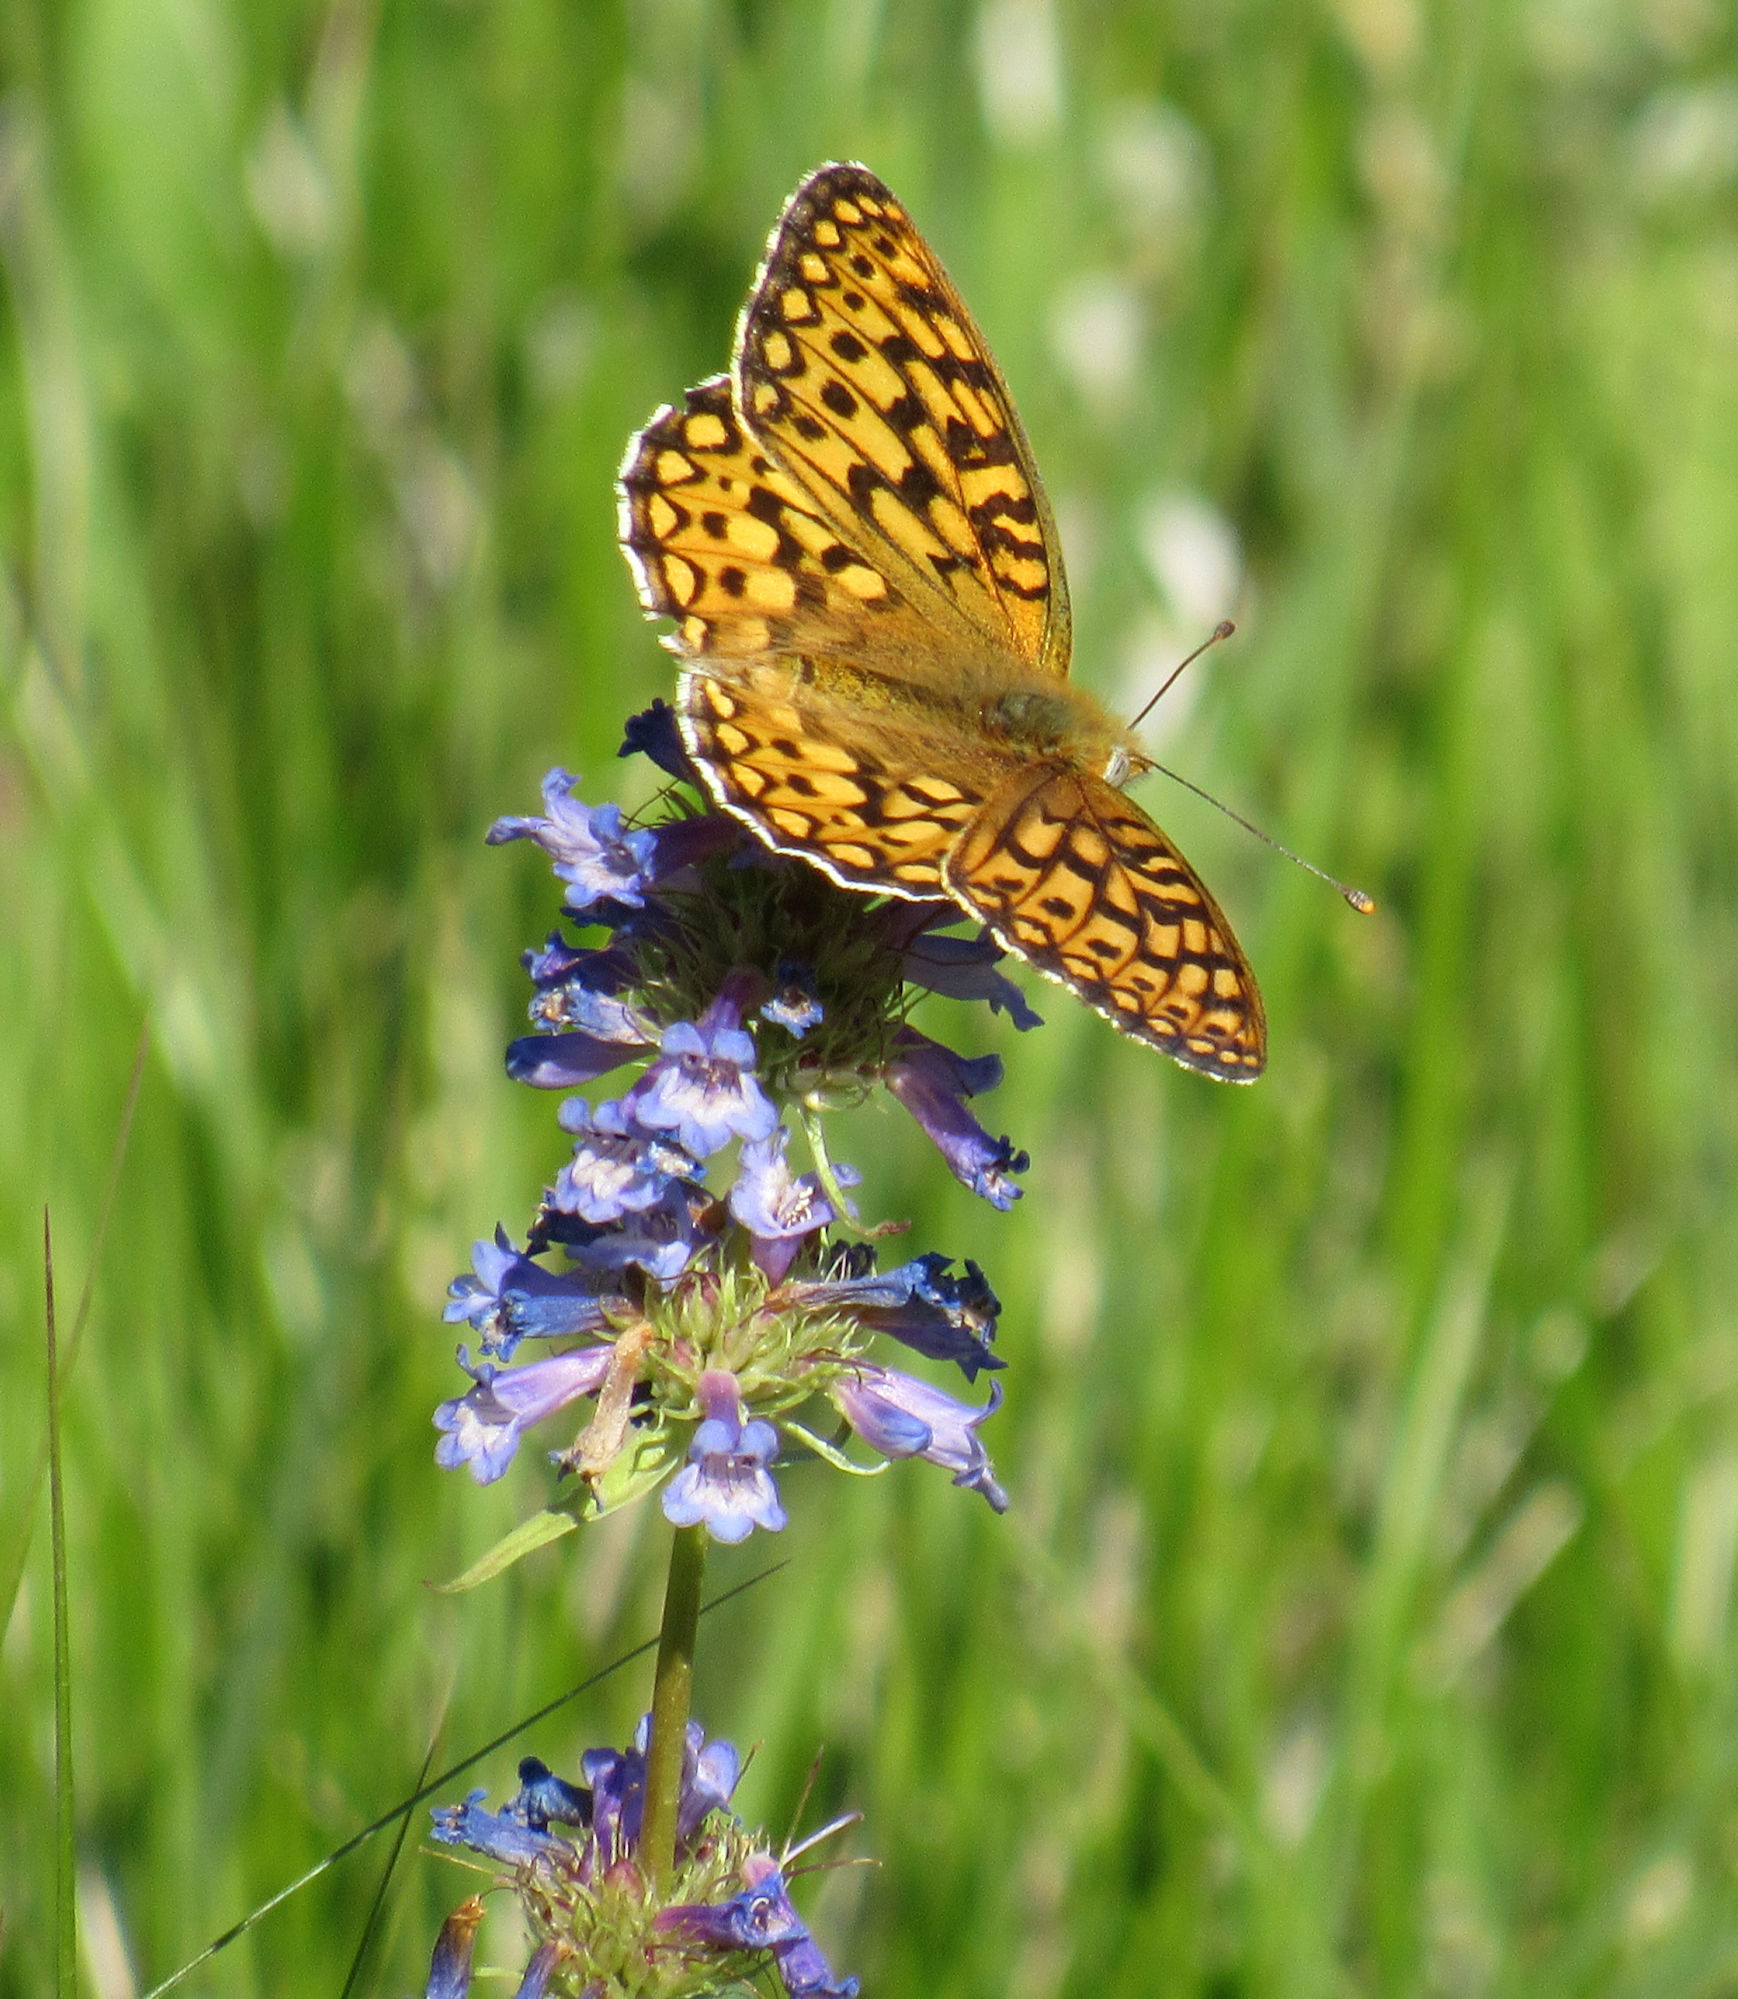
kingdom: Plantae
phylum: Tracheophyta
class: Magnoliopsida
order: Lamiales
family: Plantaginaceae
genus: Penstemon
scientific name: Penstemon procerus
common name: Small-flower penstemon
